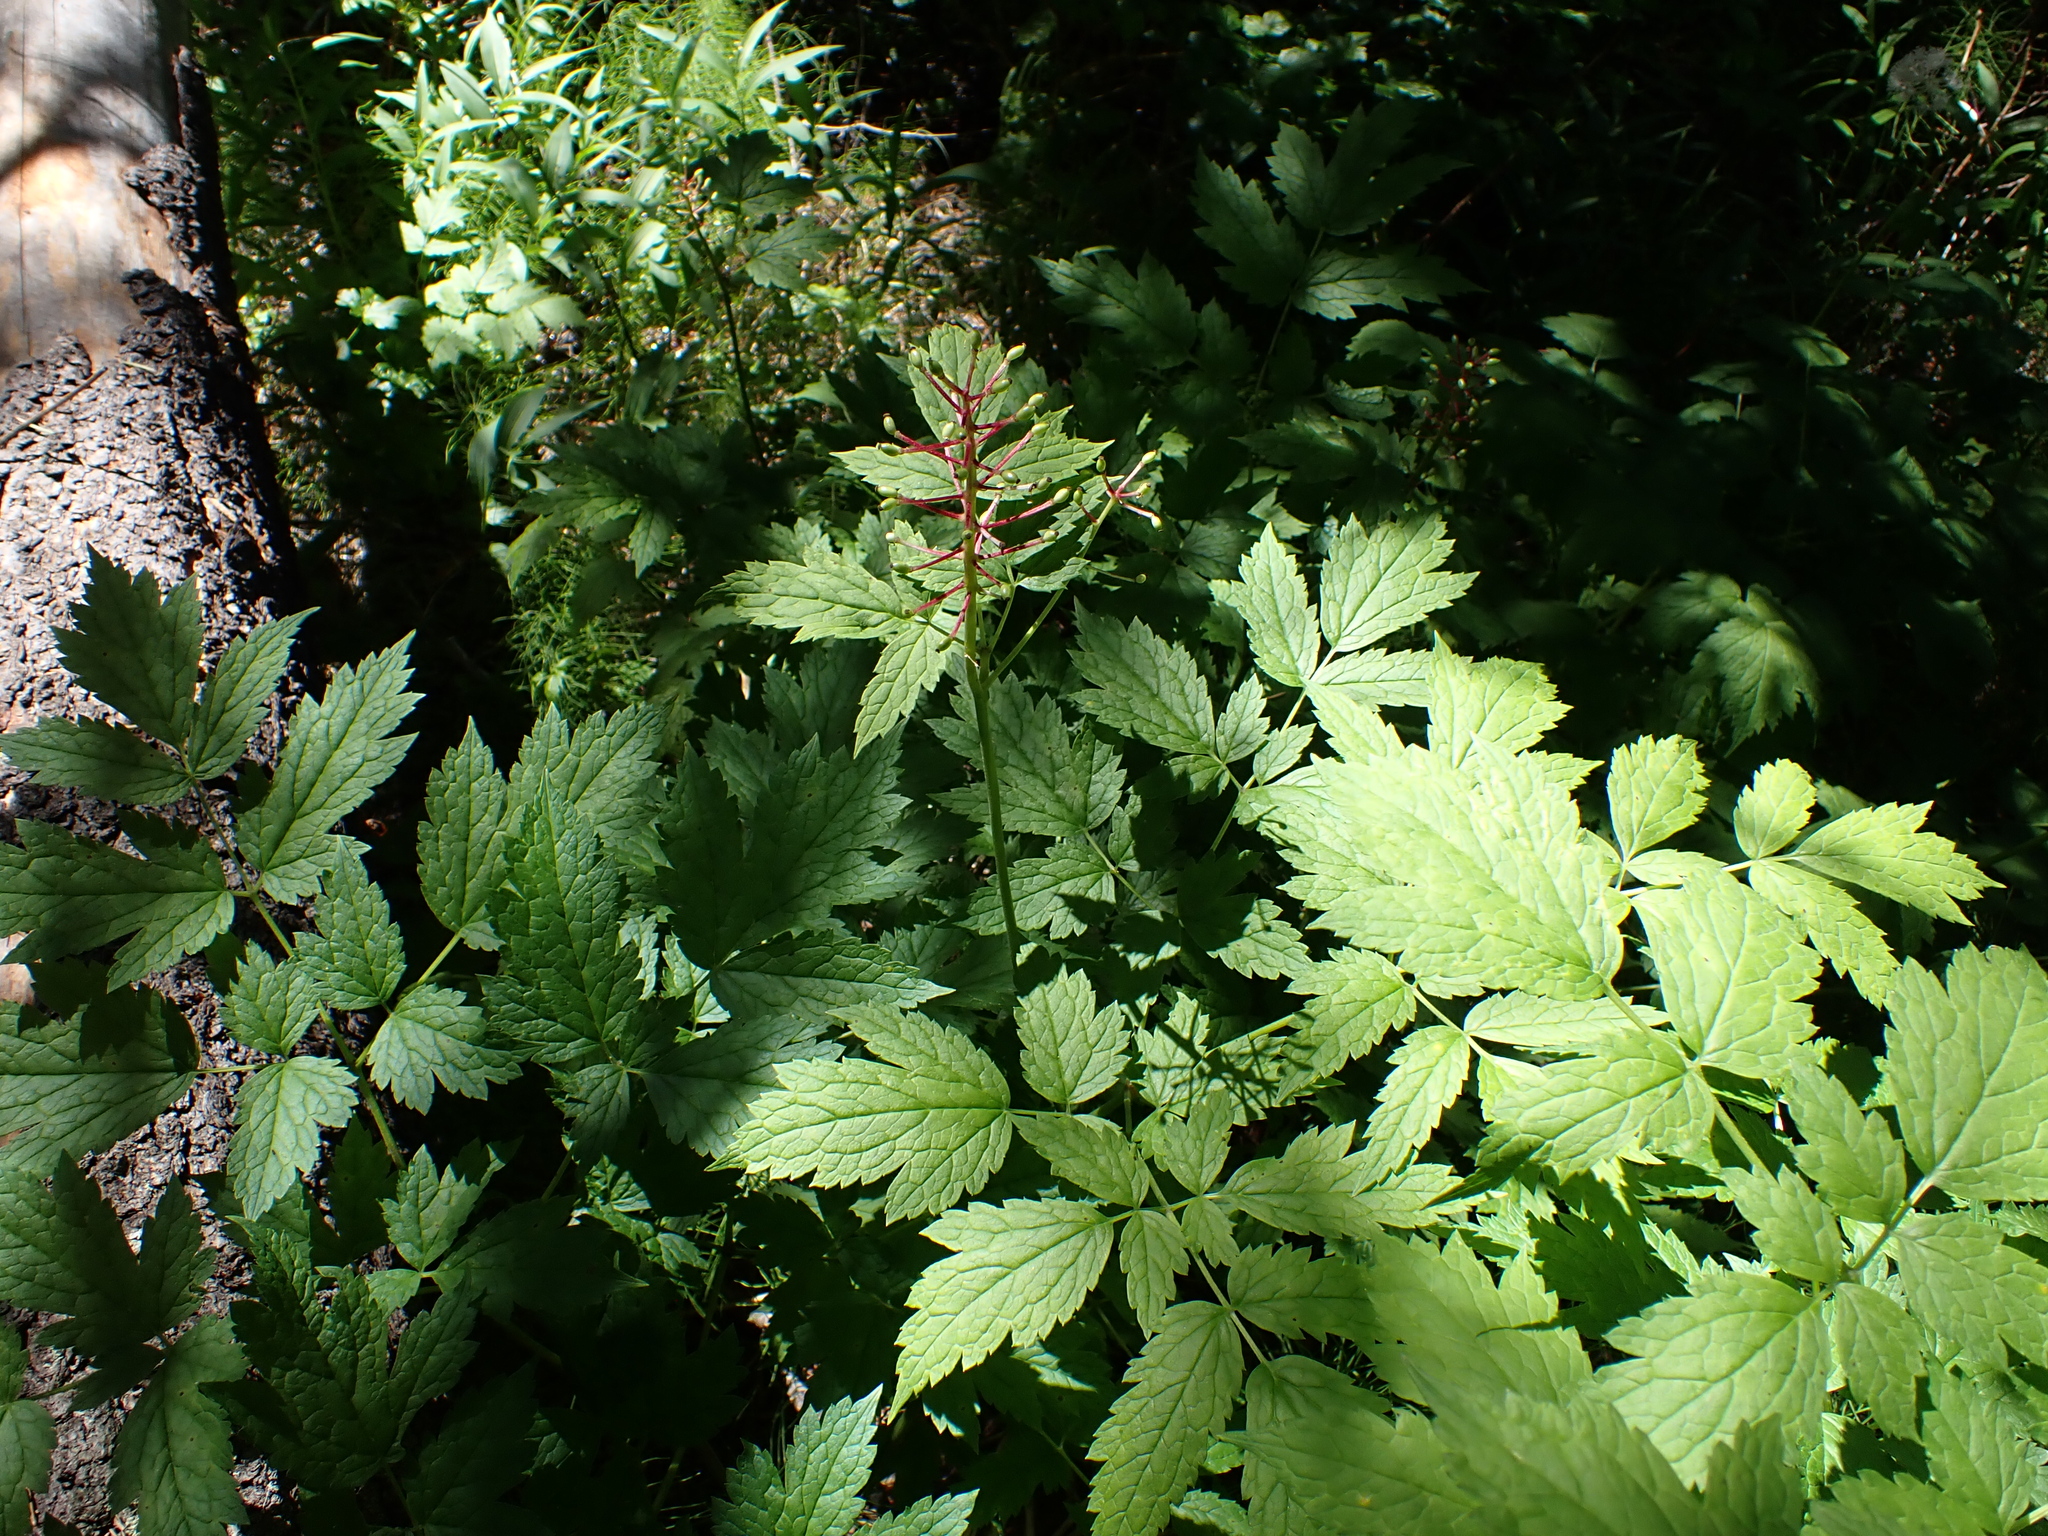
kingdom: Plantae
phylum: Tracheophyta
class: Magnoliopsida
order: Ranunculales
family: Ranunculaceae
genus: Actaea
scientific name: Actaea rubra
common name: Red baneberry
